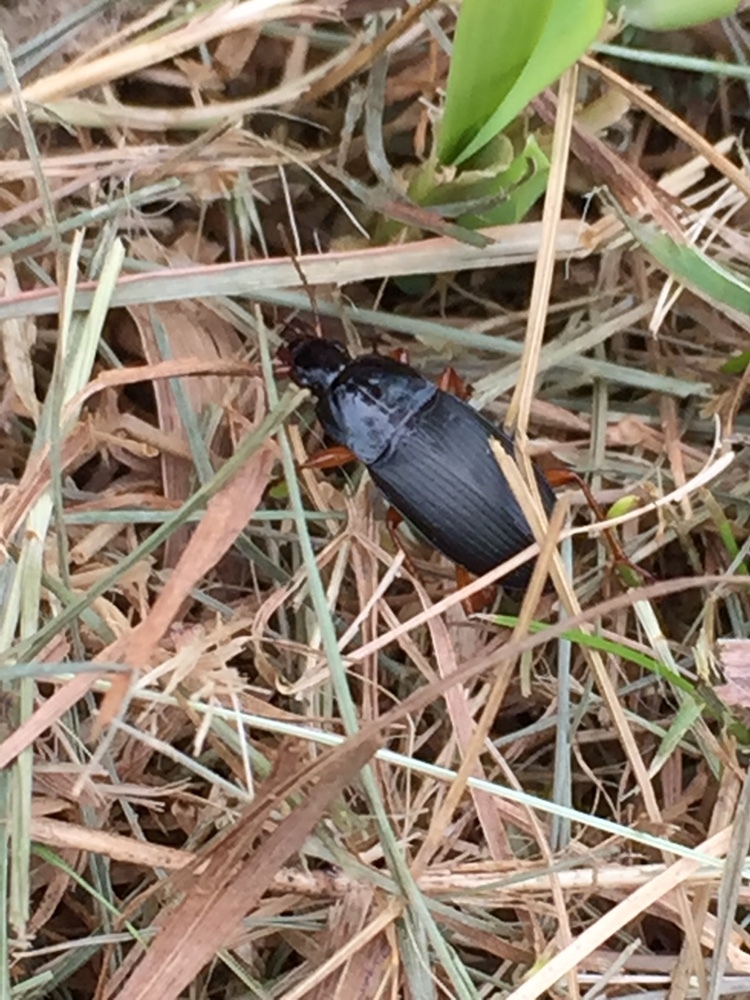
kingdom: Animalia
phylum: Arthropoda
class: Insecta
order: Coleoptera
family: Carabidae
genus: Calathus
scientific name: Calathus fuscipes
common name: Dark-footed harp ground beetle
